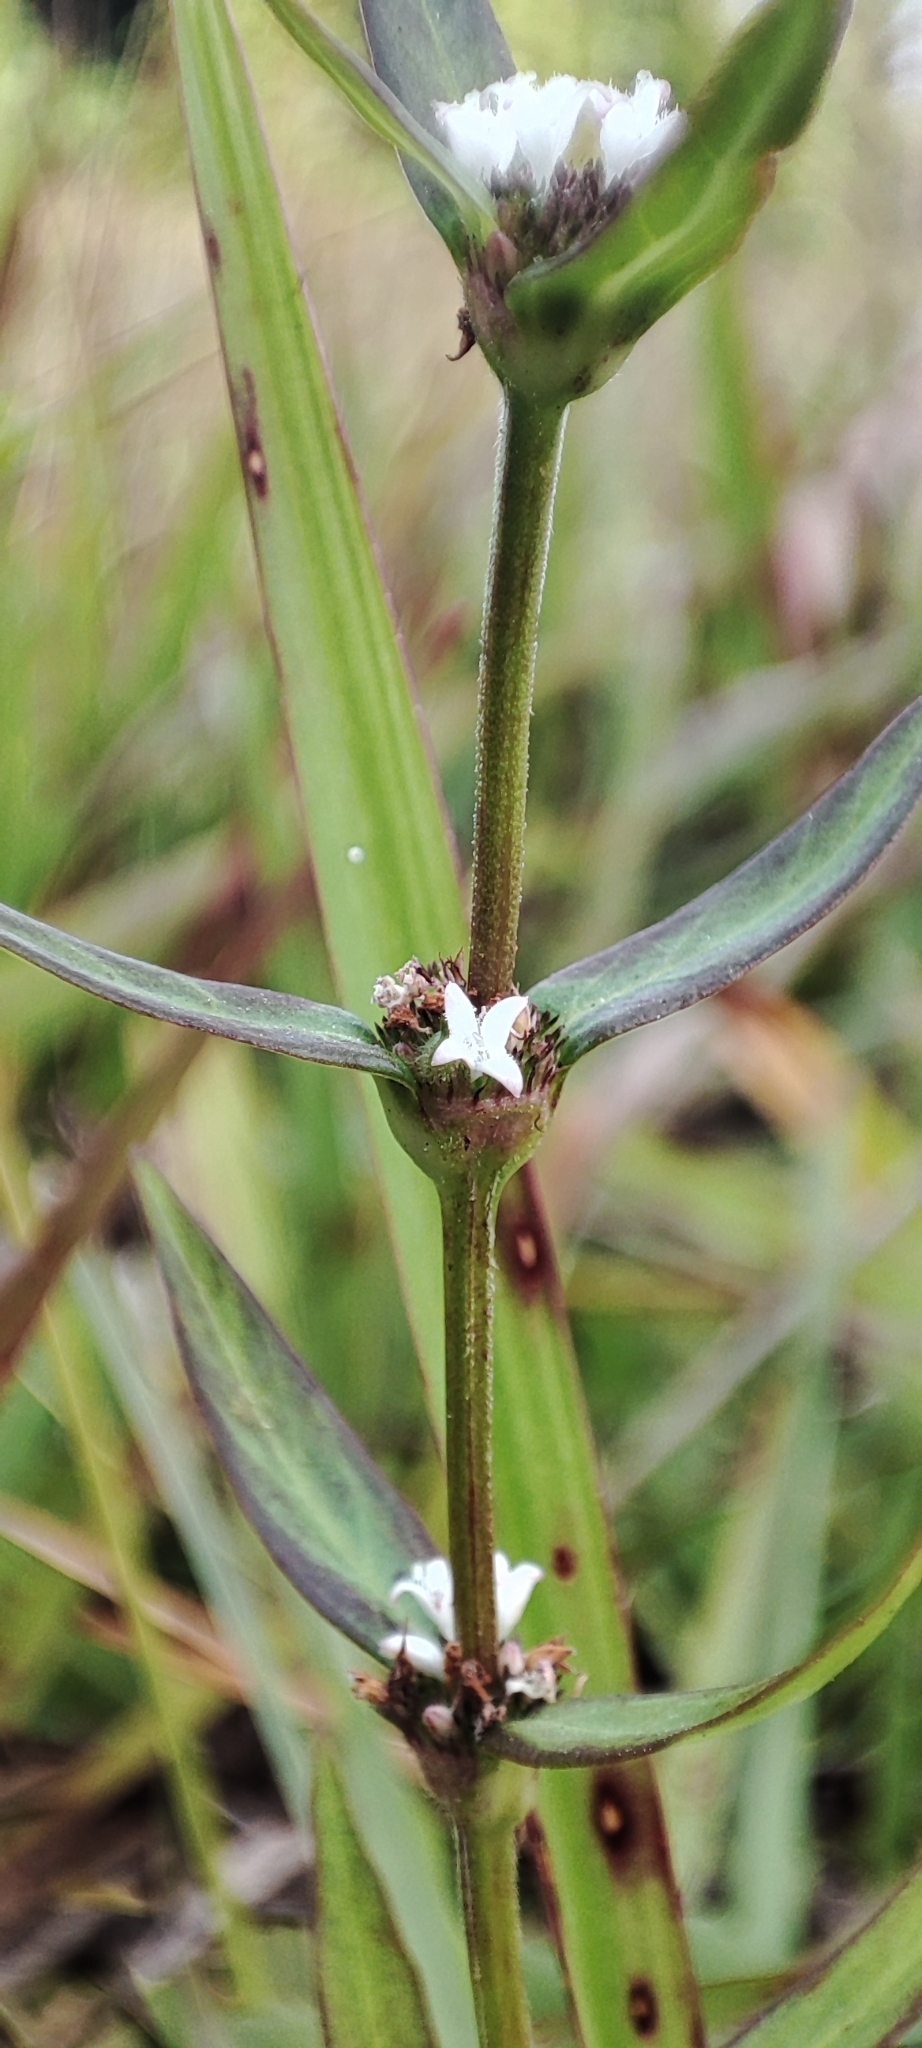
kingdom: Plantae
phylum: Tracheophyta
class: Magnoliopsida
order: Gentianales
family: Rubiaceae
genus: Spermacoce
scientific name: Spermacoce remota
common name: Woodland false buttonweed
